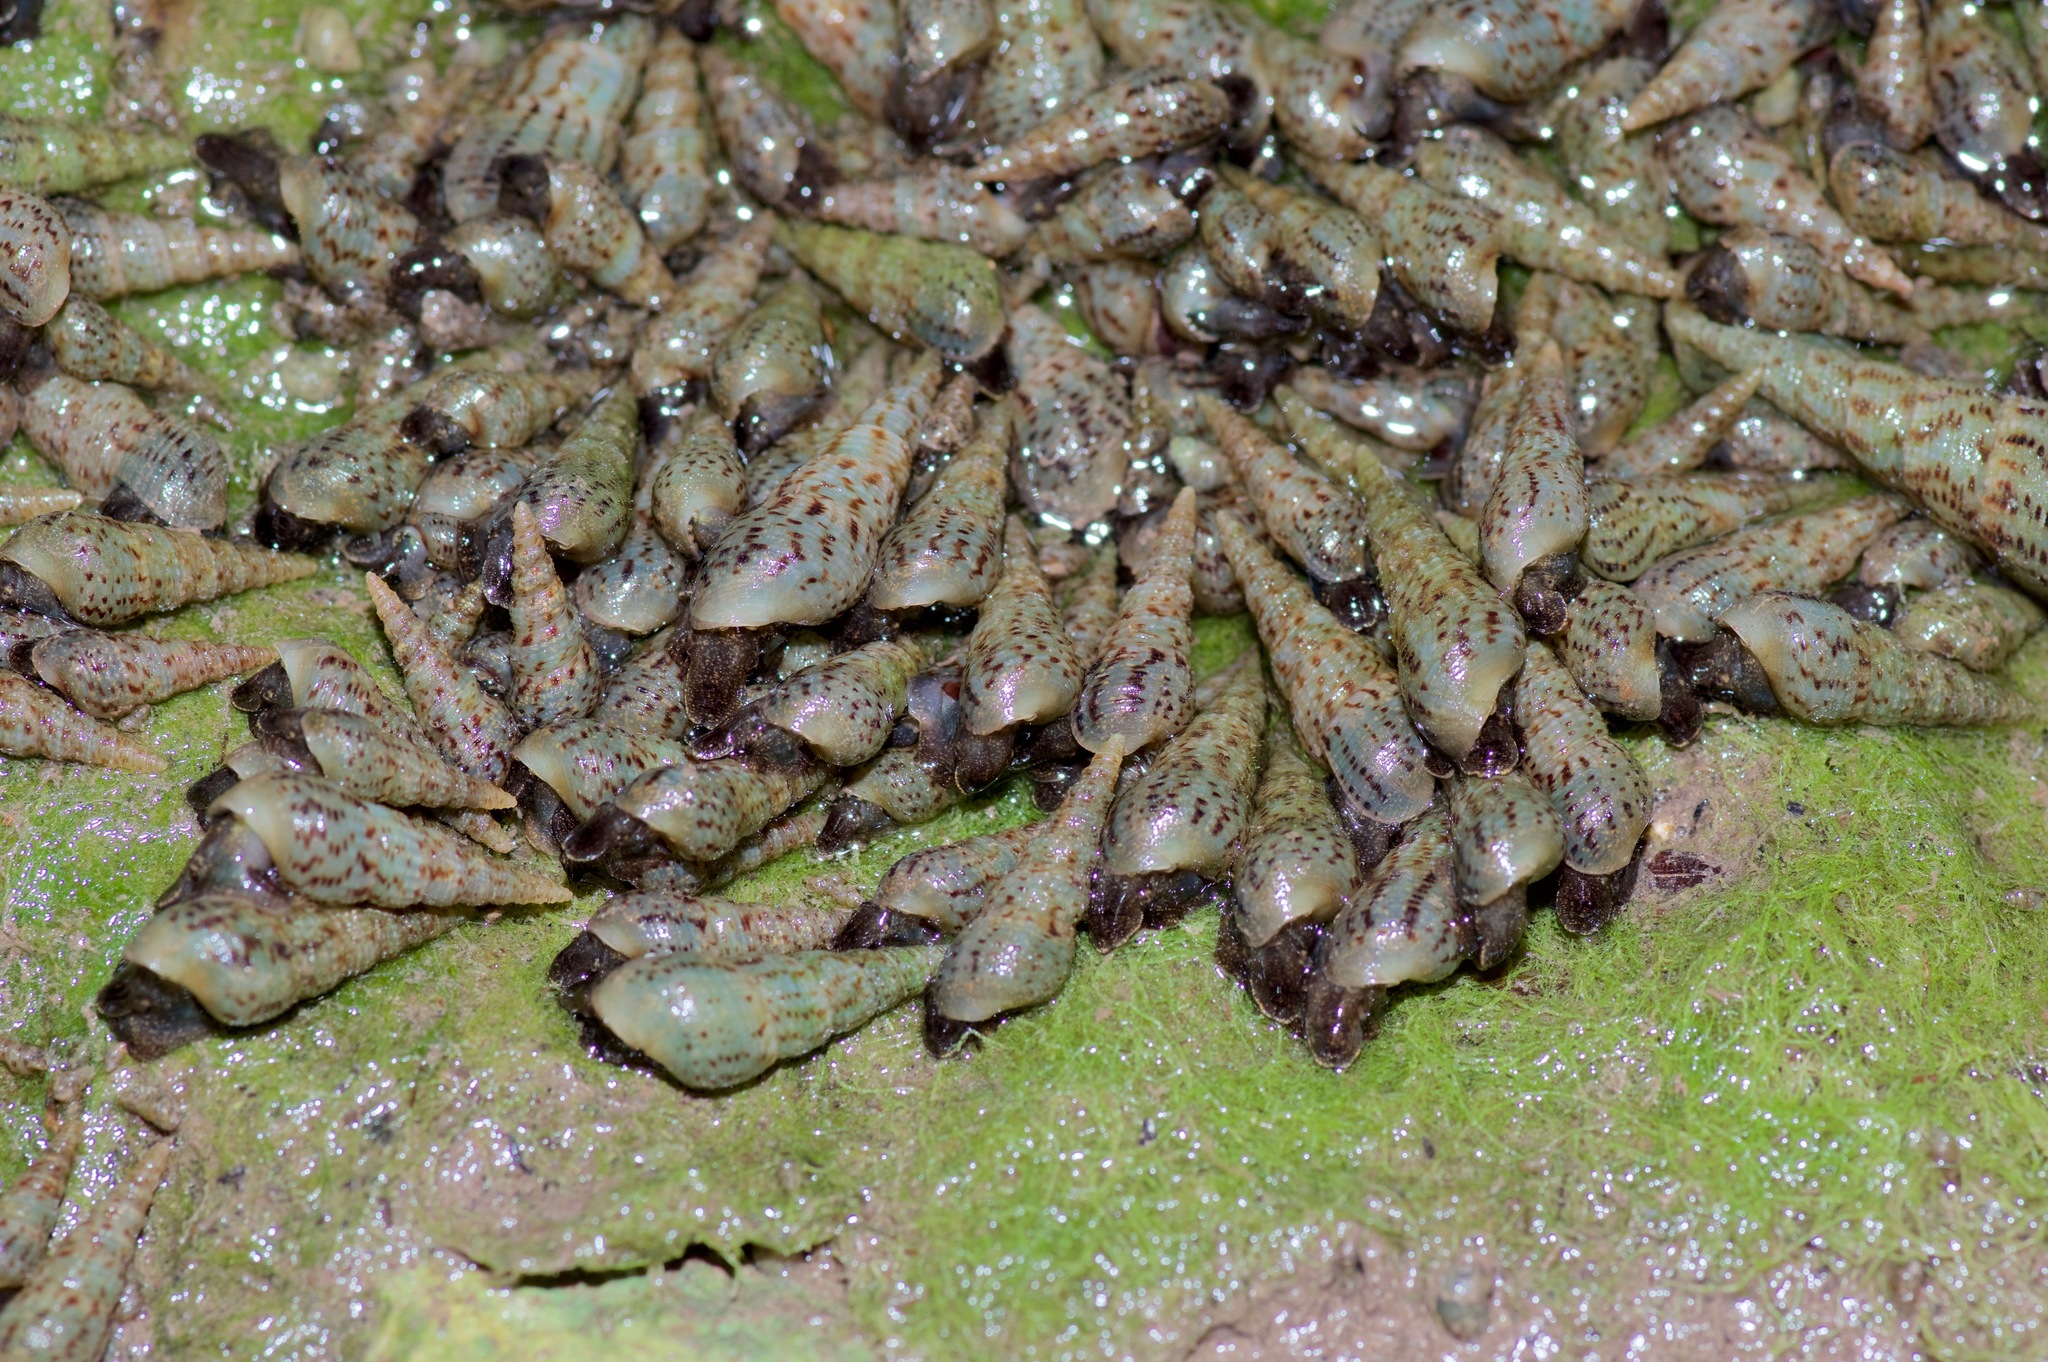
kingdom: Animalia
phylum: Mollusca
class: Gastropoda
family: Thiaridae
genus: Melanoides
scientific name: Melanoides tuberculata
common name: Red-rim melania
